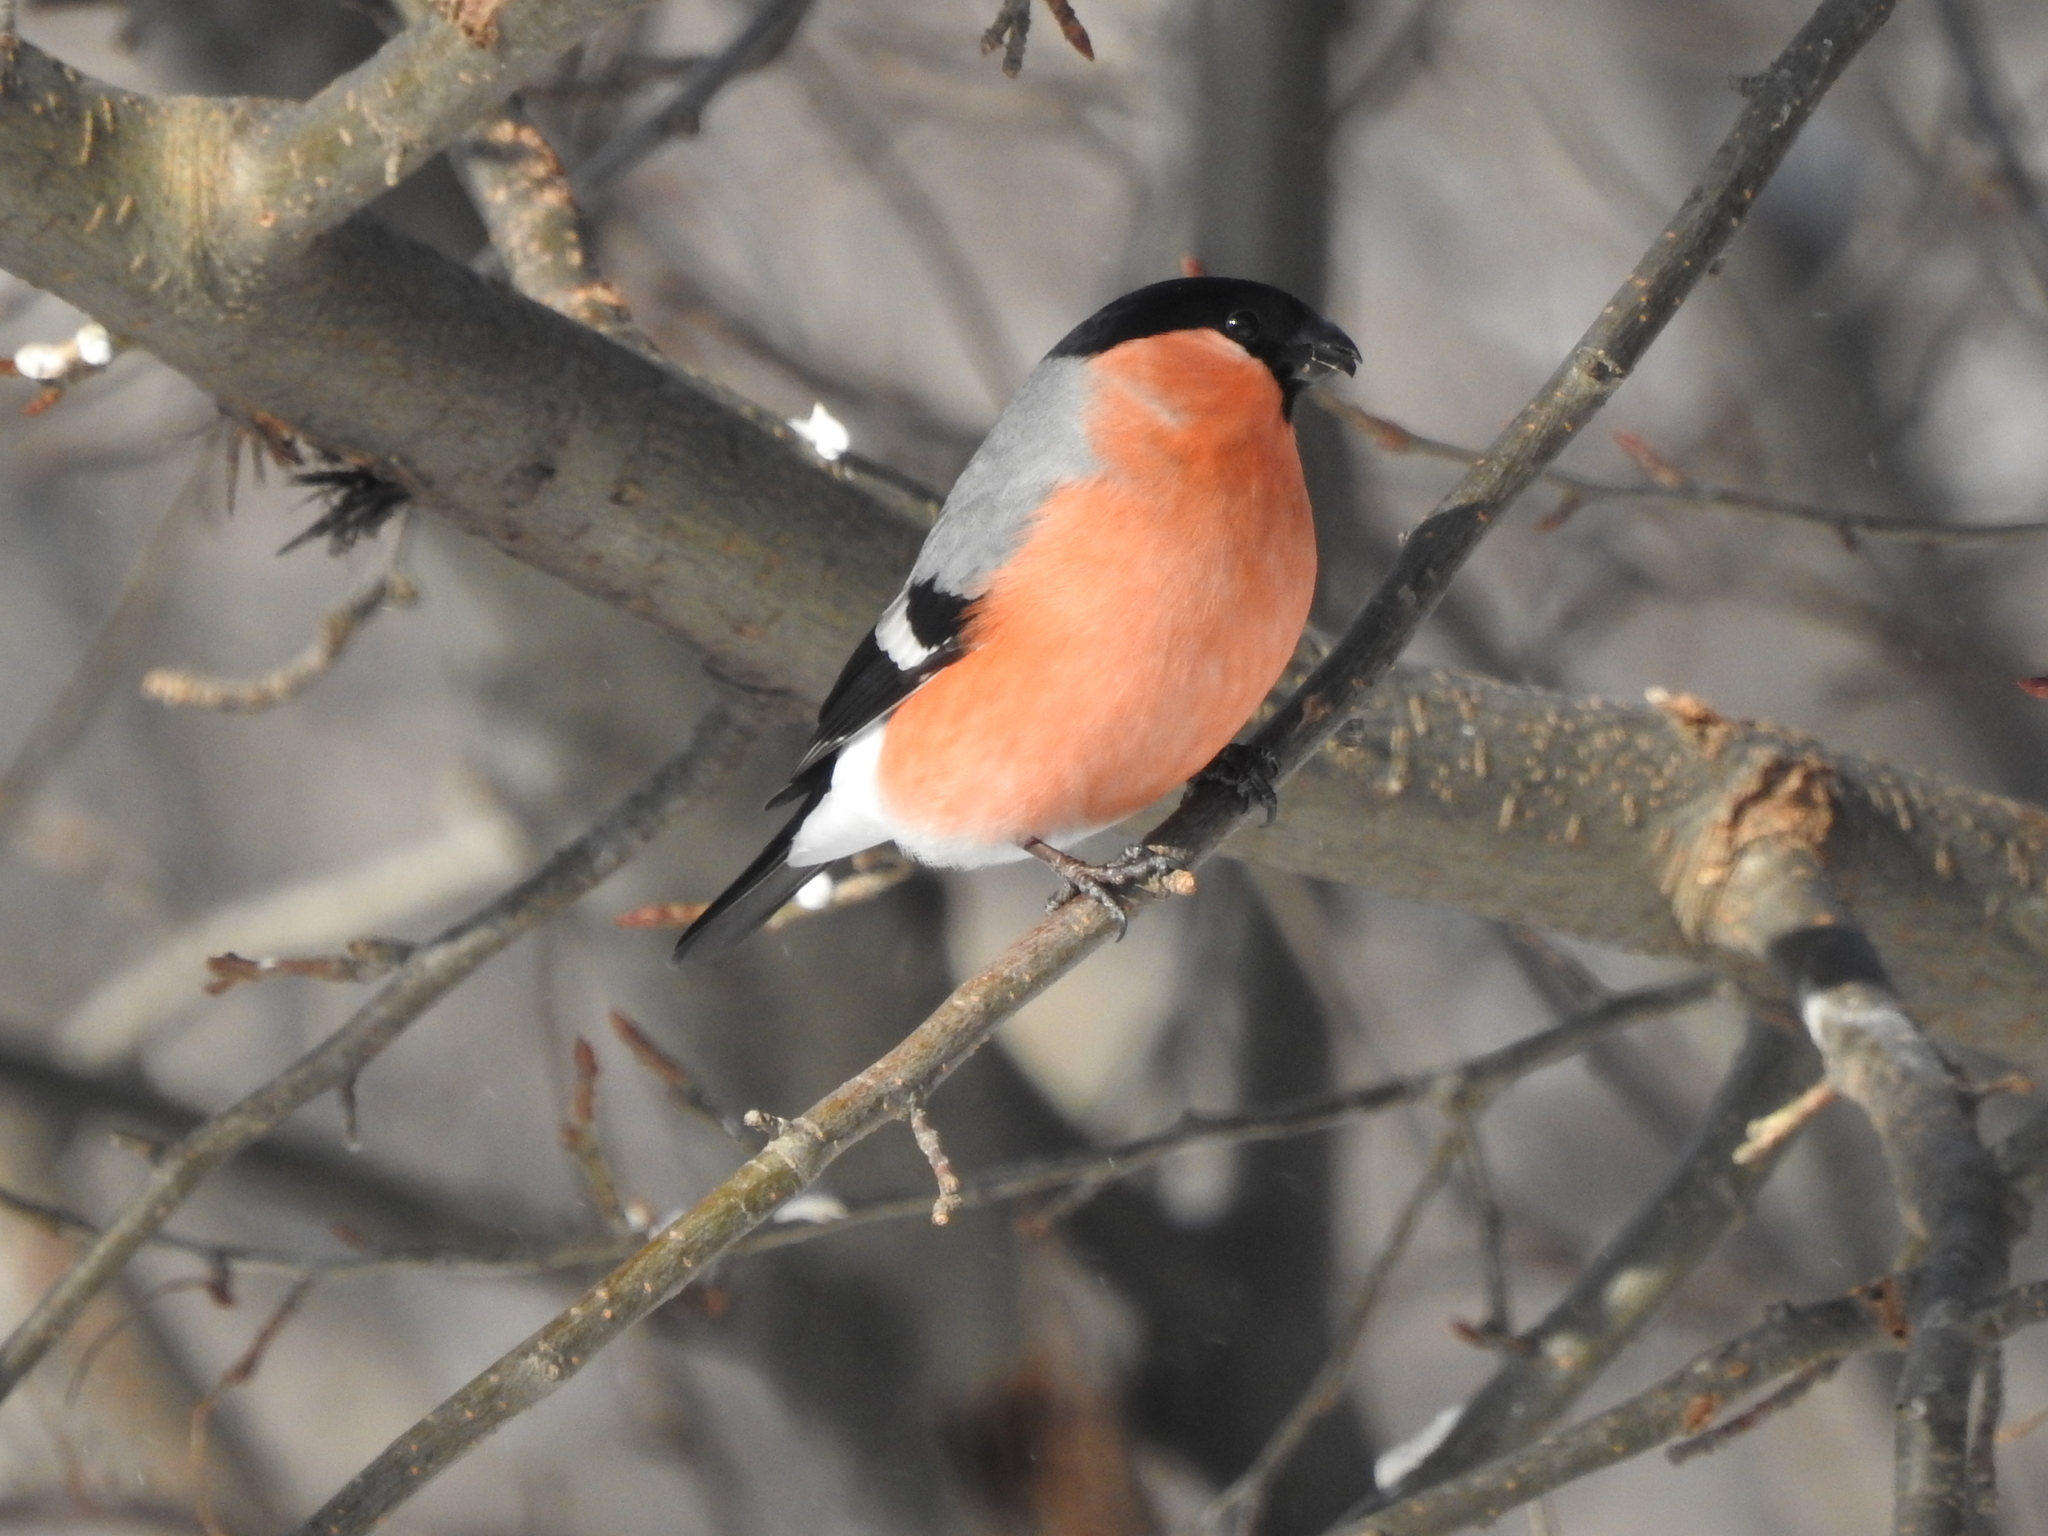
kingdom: Animalia
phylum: Chordata
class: Aves
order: Passeriformes
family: Fringillidae
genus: Pyrrhula
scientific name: Pyrrhula pyrrhula
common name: Eurasian bullfinch
